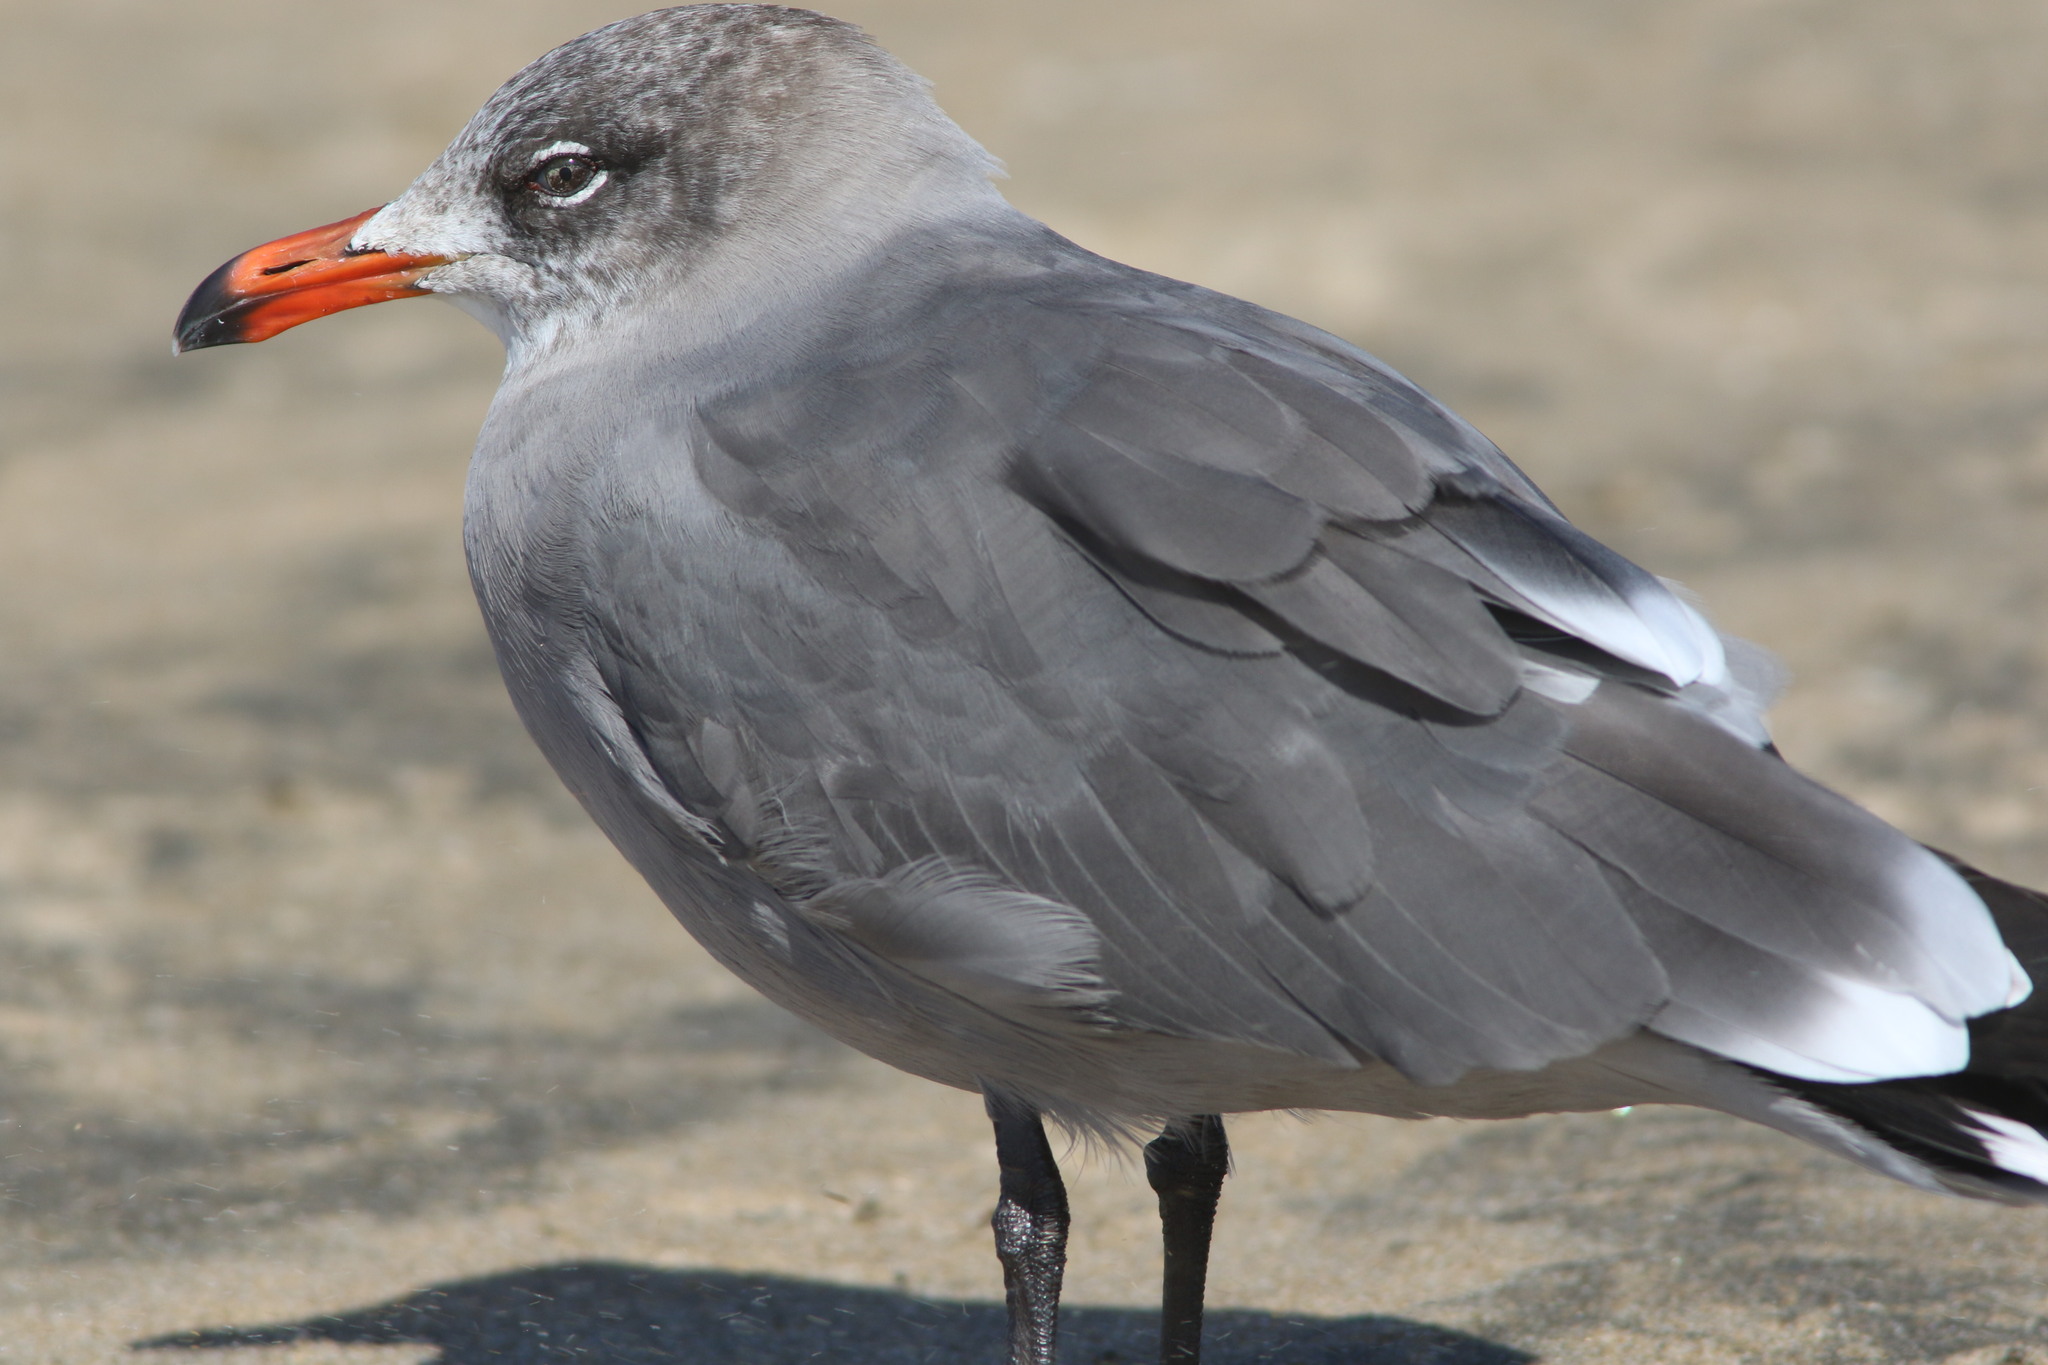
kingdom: Animalia
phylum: Chordata
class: Aves
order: Charadriiformes
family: Laridae
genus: Larus
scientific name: Larus heermanni
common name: Heermann's gull
